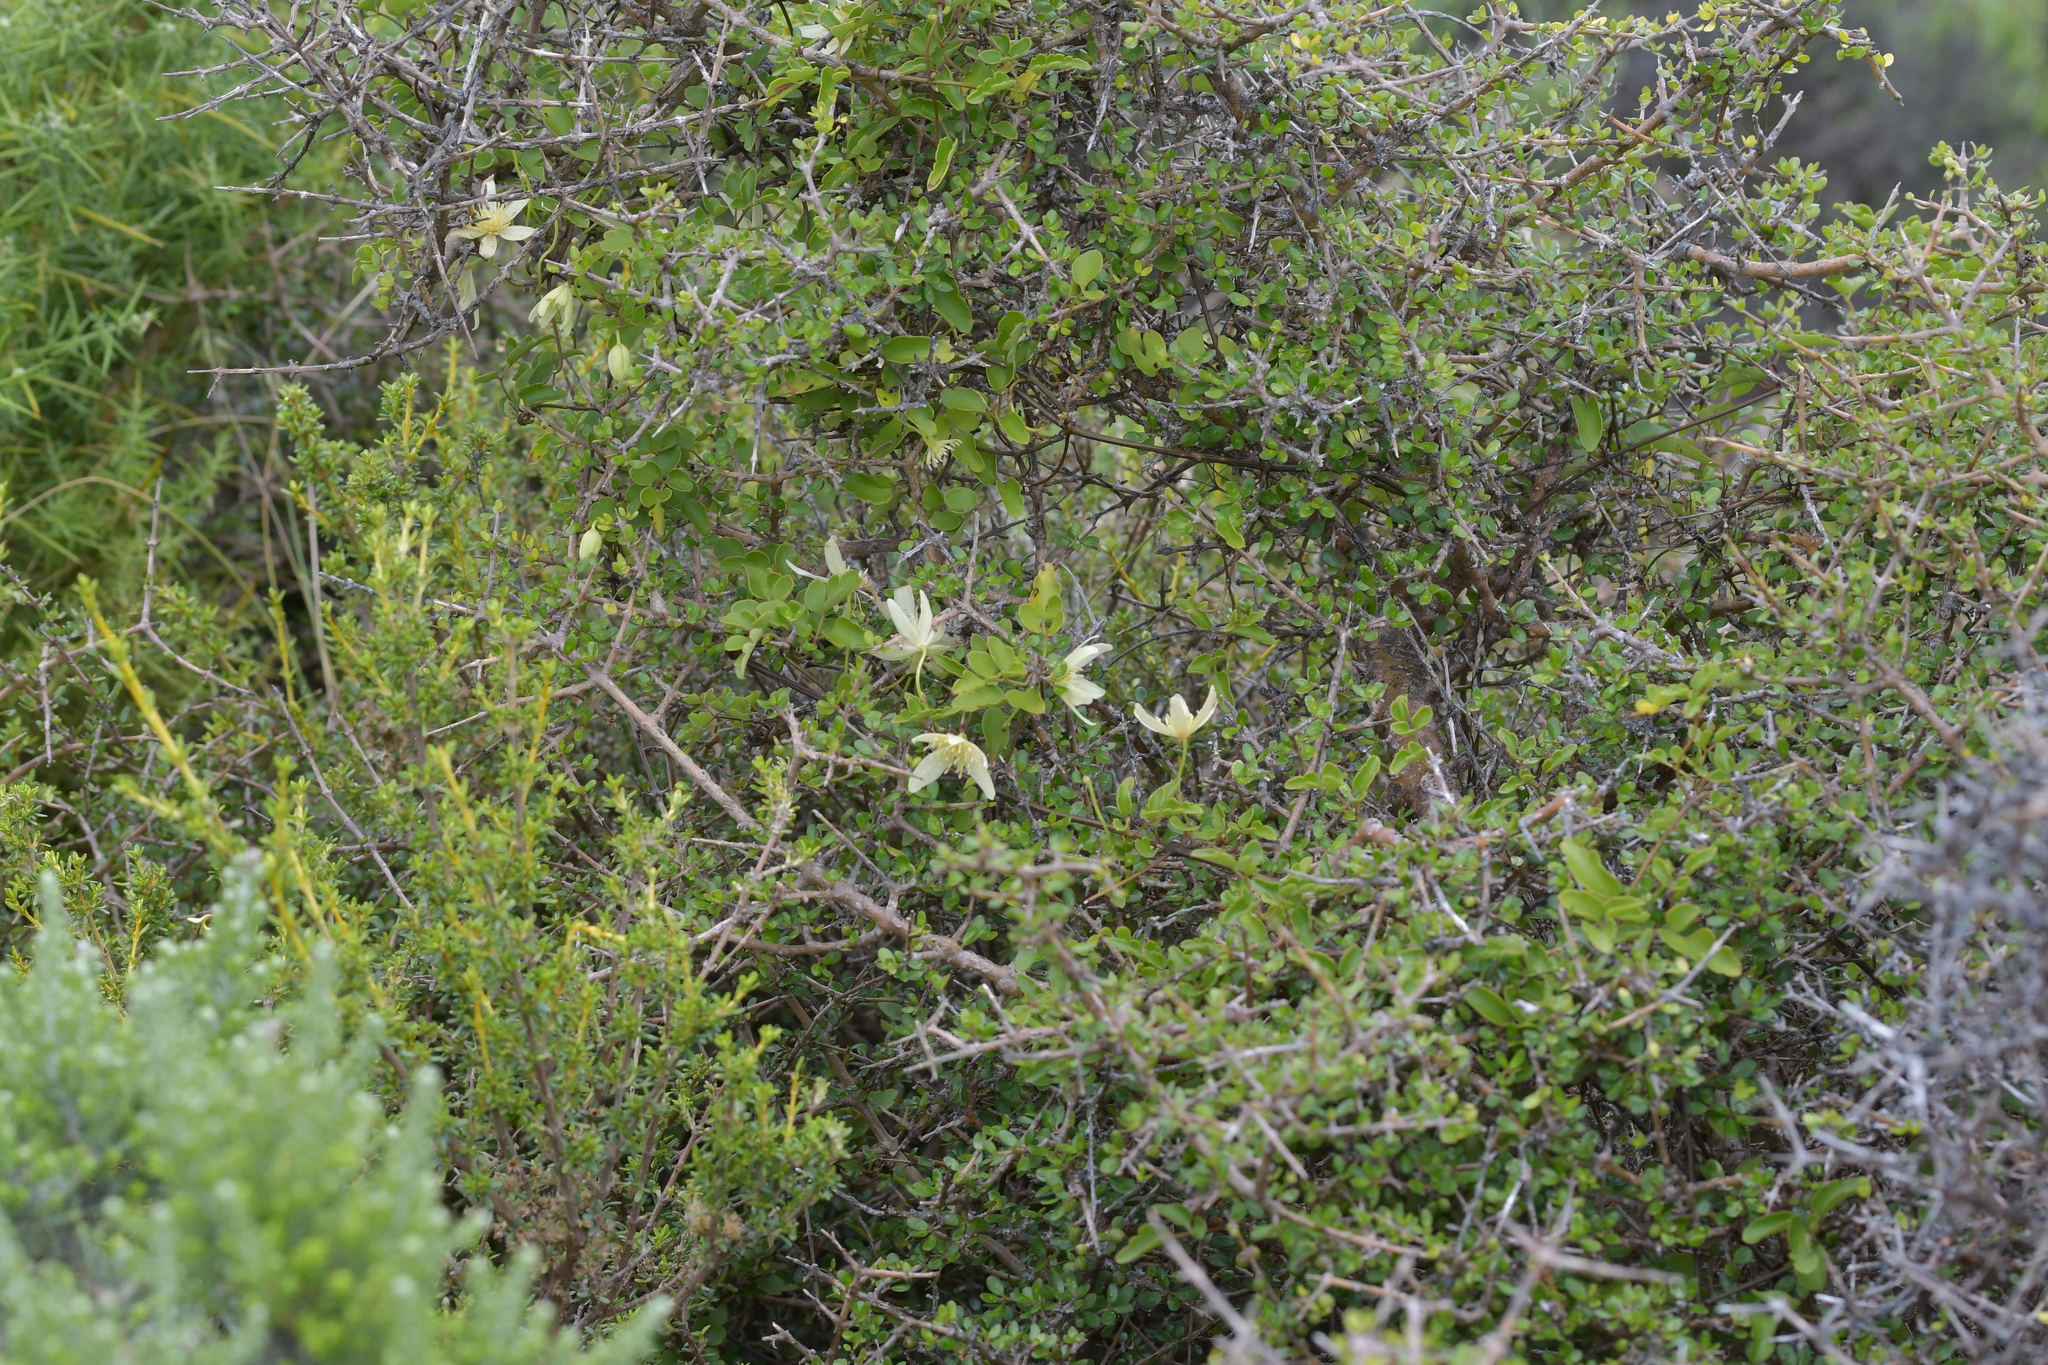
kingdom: Plantae
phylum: Tracheophyta
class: Magnoliopsida
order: Ranunculales
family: Ranunculaceae
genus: Clematis
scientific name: Clematis forsteri
